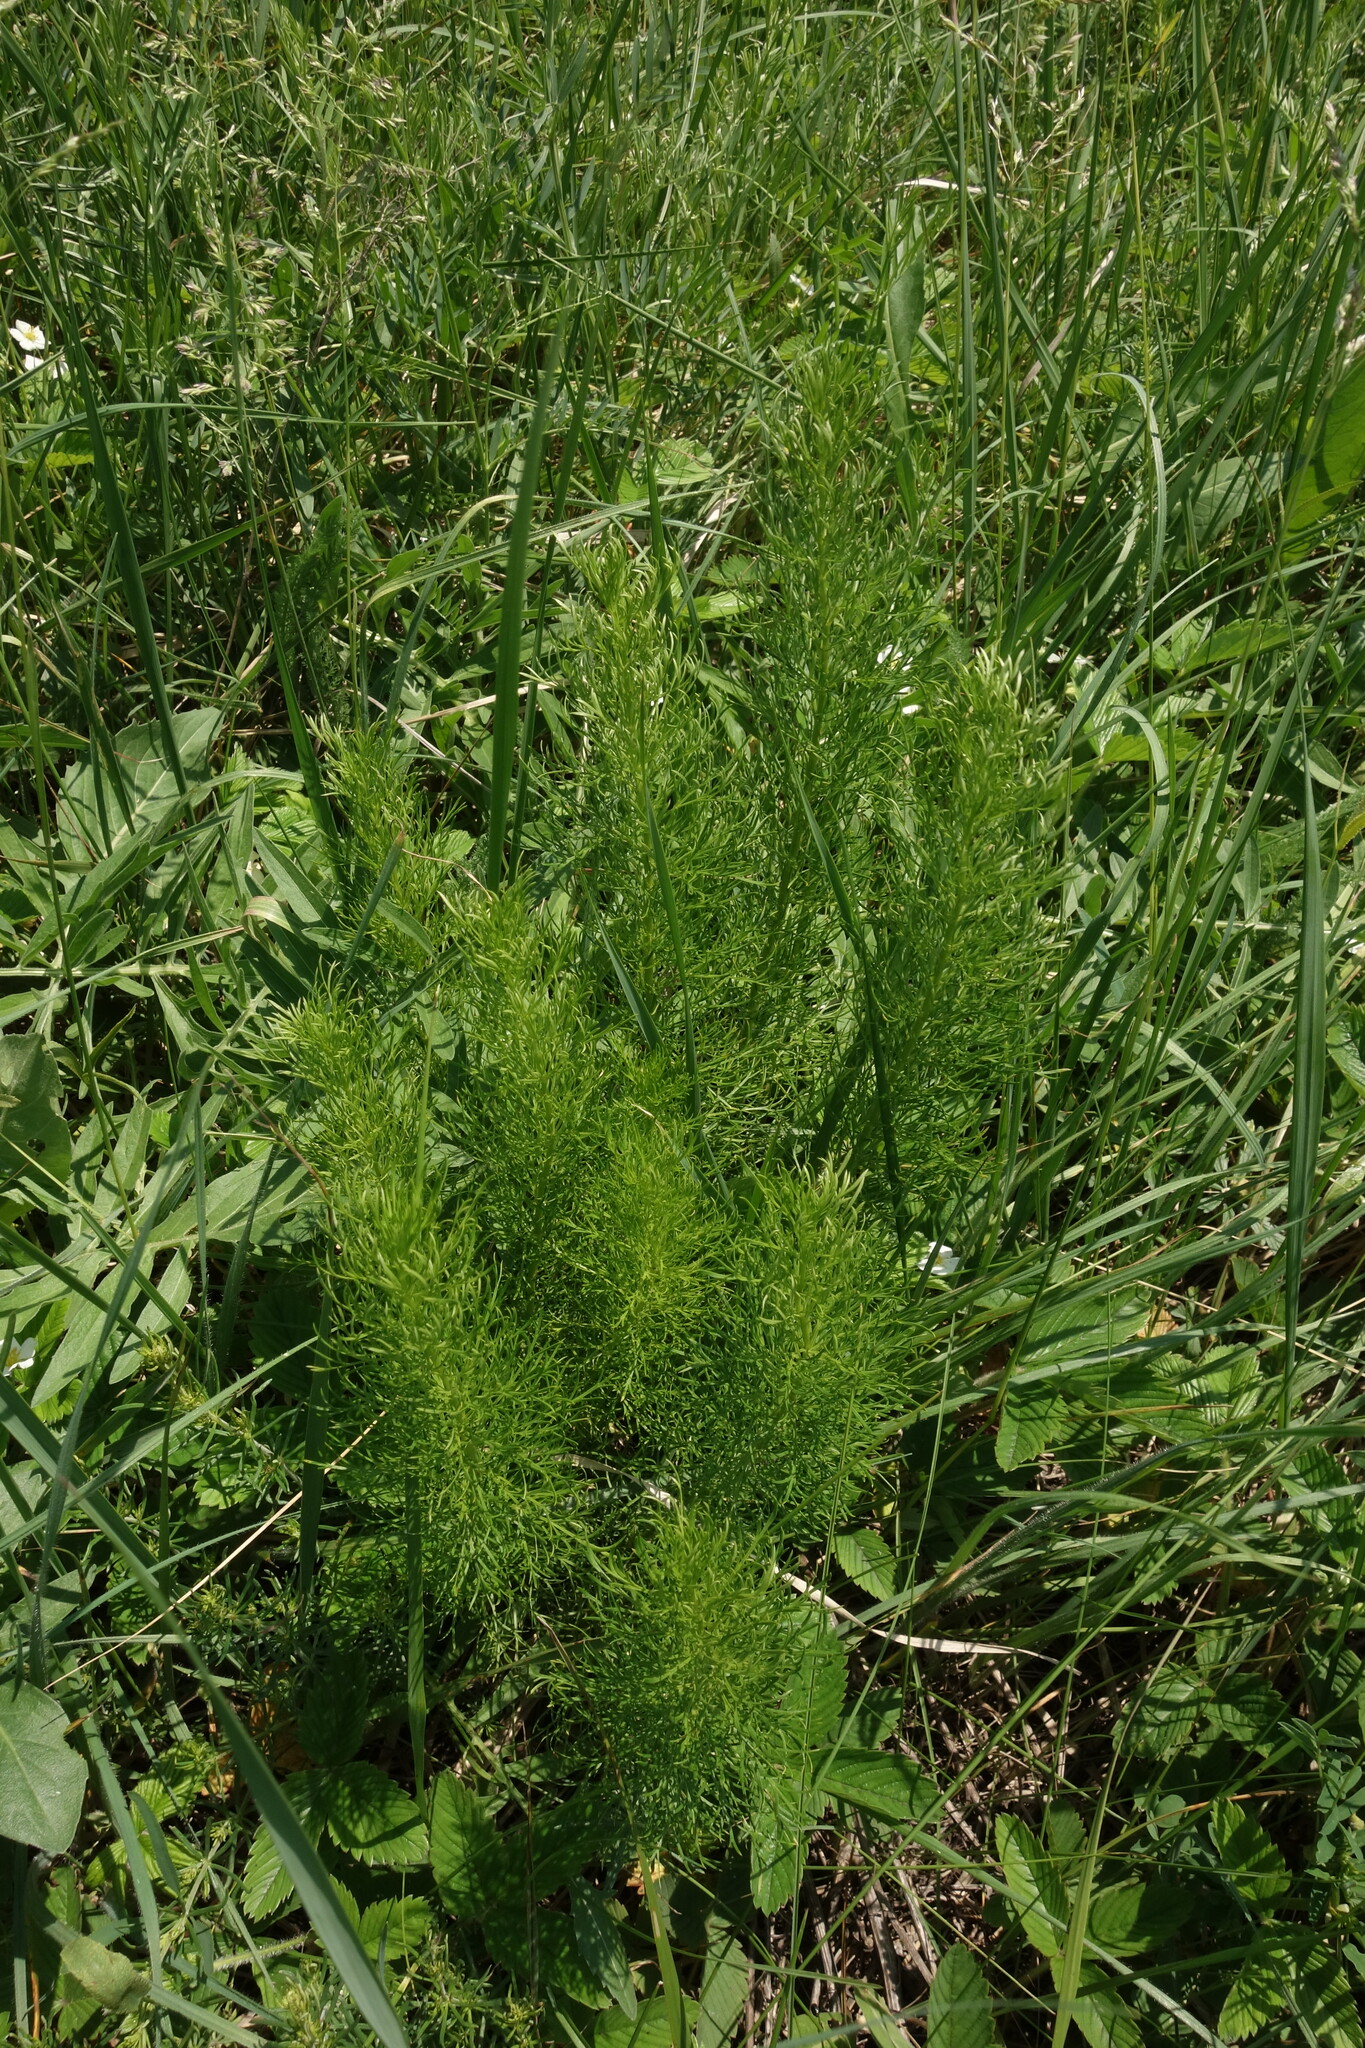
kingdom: Plantae
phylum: Tracheophyta
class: Magnoliopsida
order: Ranunculales
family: Ranunculaceae
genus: Adonis
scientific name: Adonis vernalis
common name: Yellow pheasants-eye
